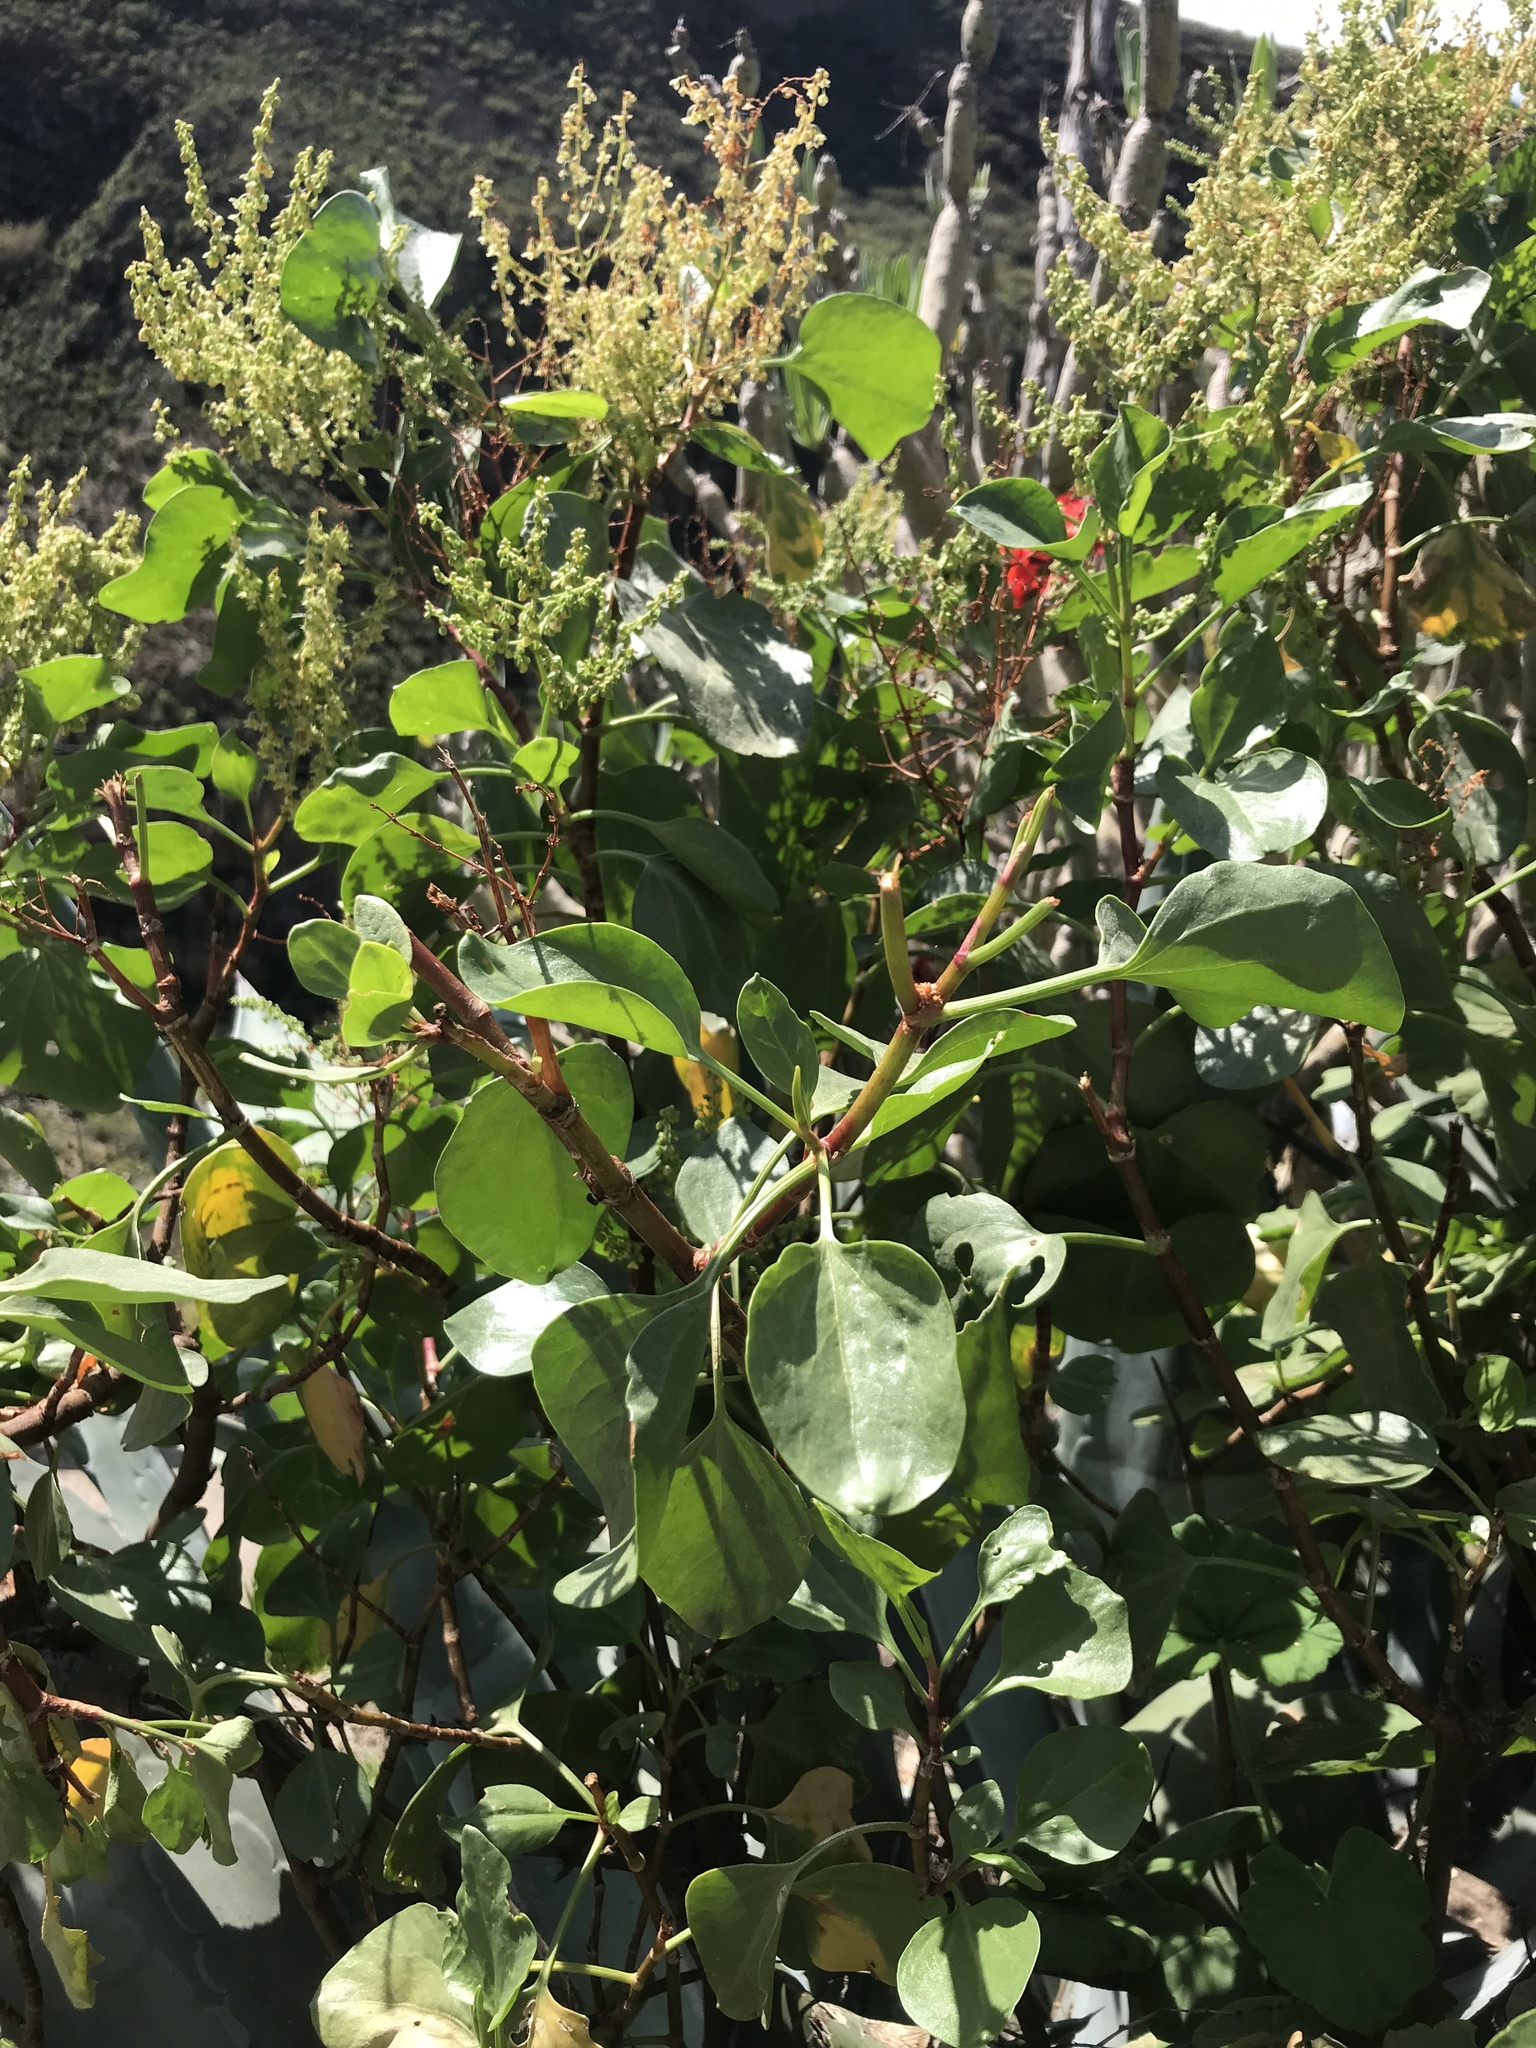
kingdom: Plantae
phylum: Tracheophyta
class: Magnoliopsida
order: Caryophyllales
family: Polygonaceae
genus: Rumex
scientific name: Rumex lunaria
